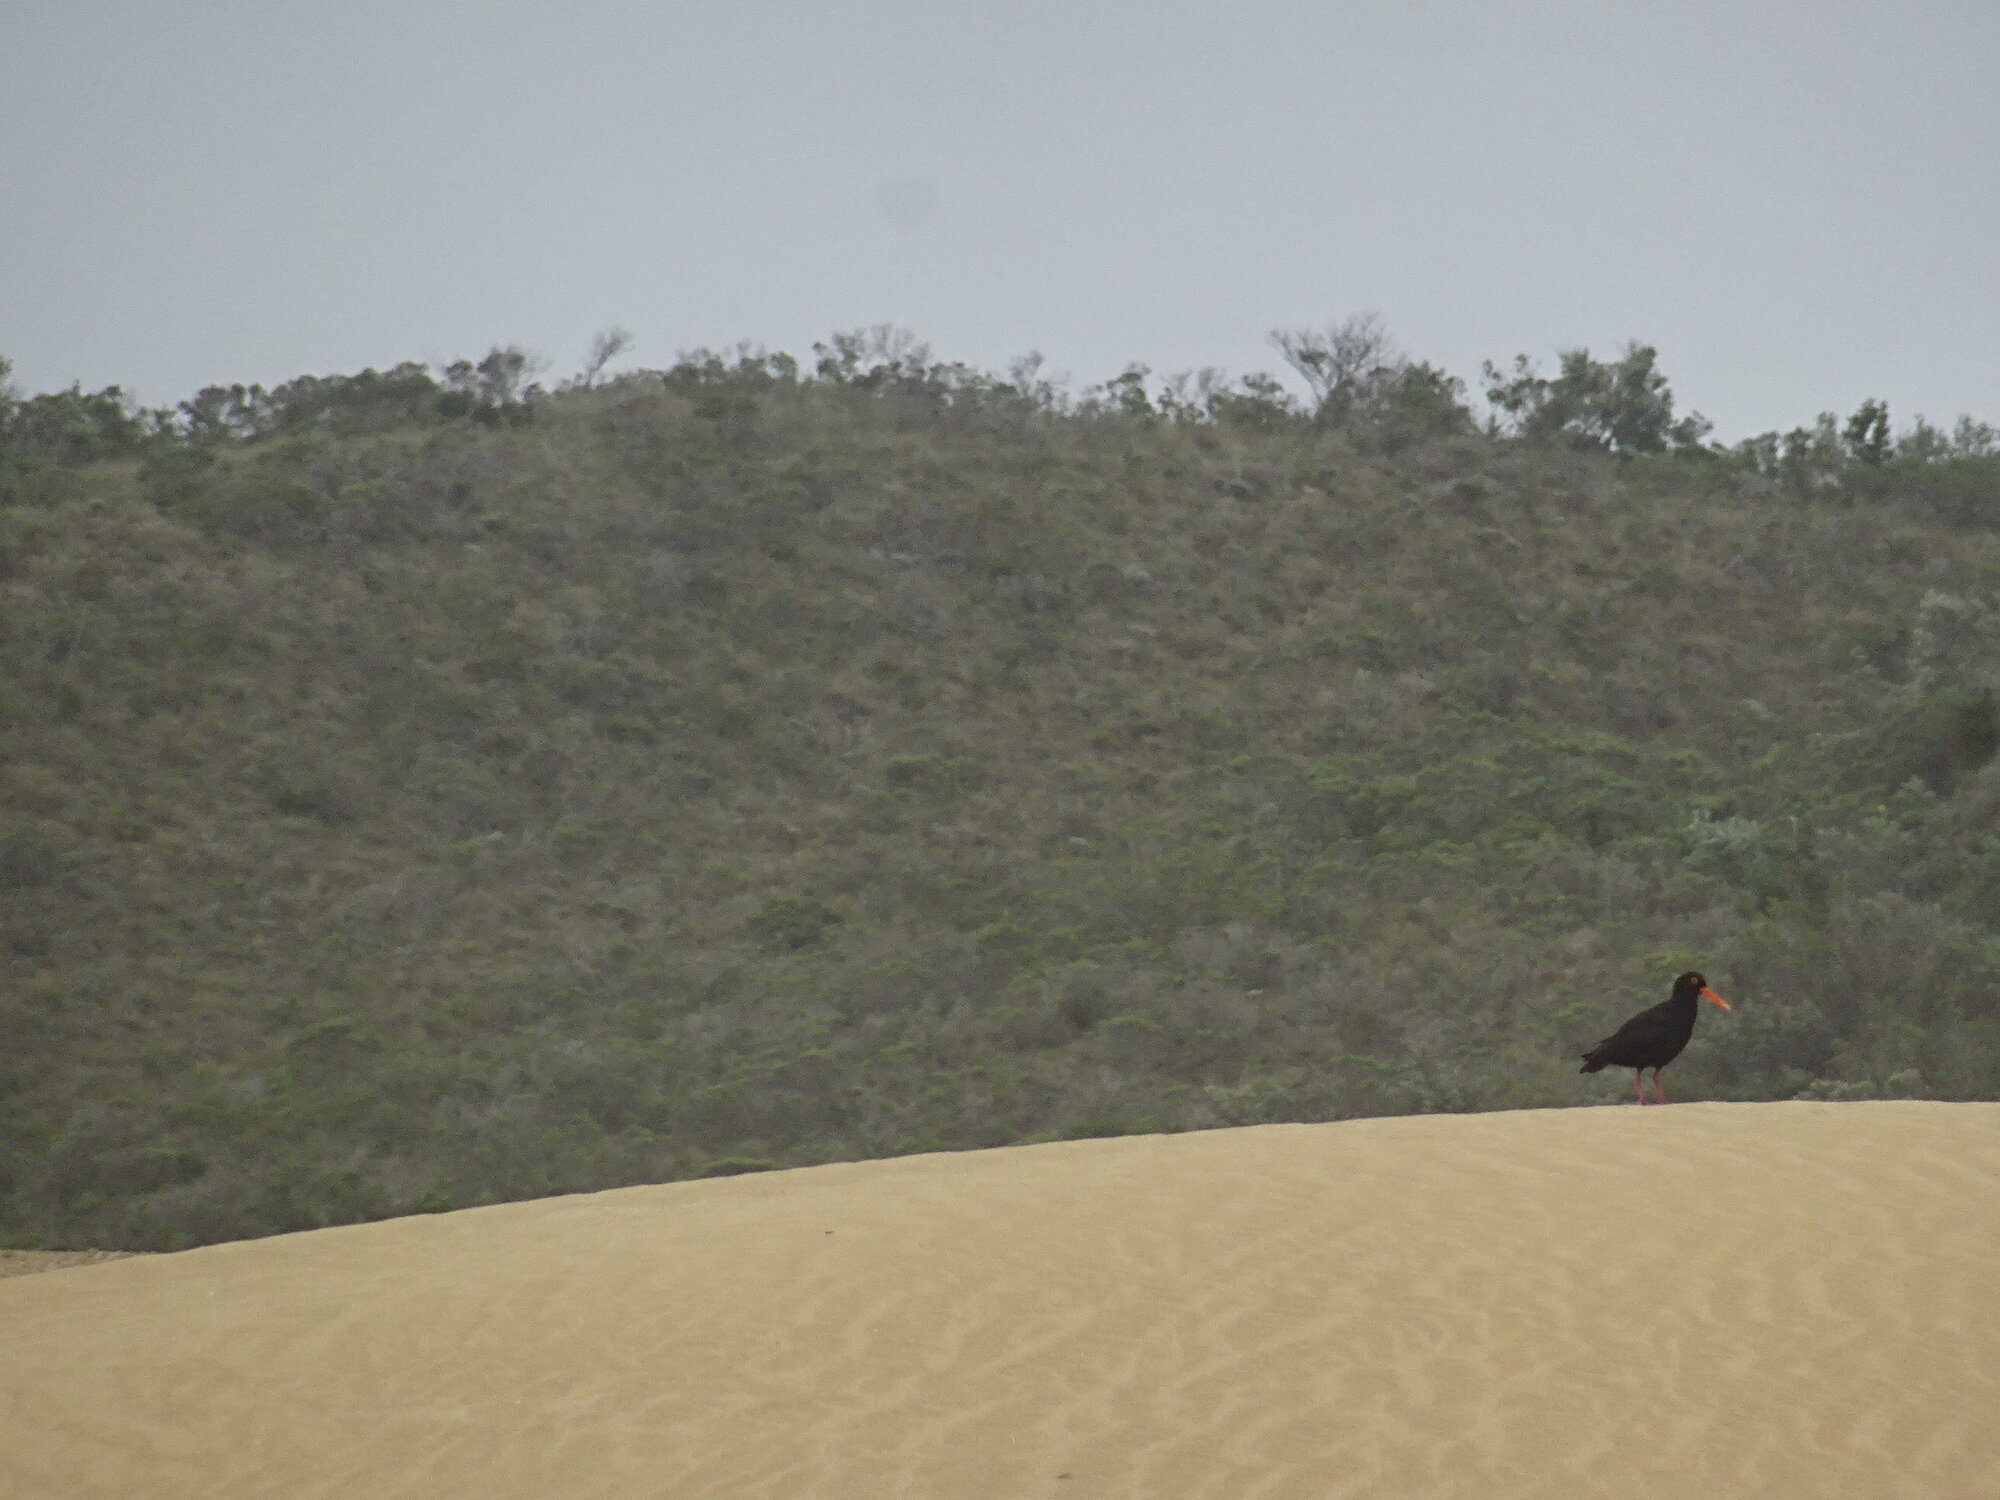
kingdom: Animalia
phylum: Chordata
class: Aves
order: Charadriiformes
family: Haematopodidae
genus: Haematopus
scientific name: Haematopus moquini
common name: African oystercatcher
